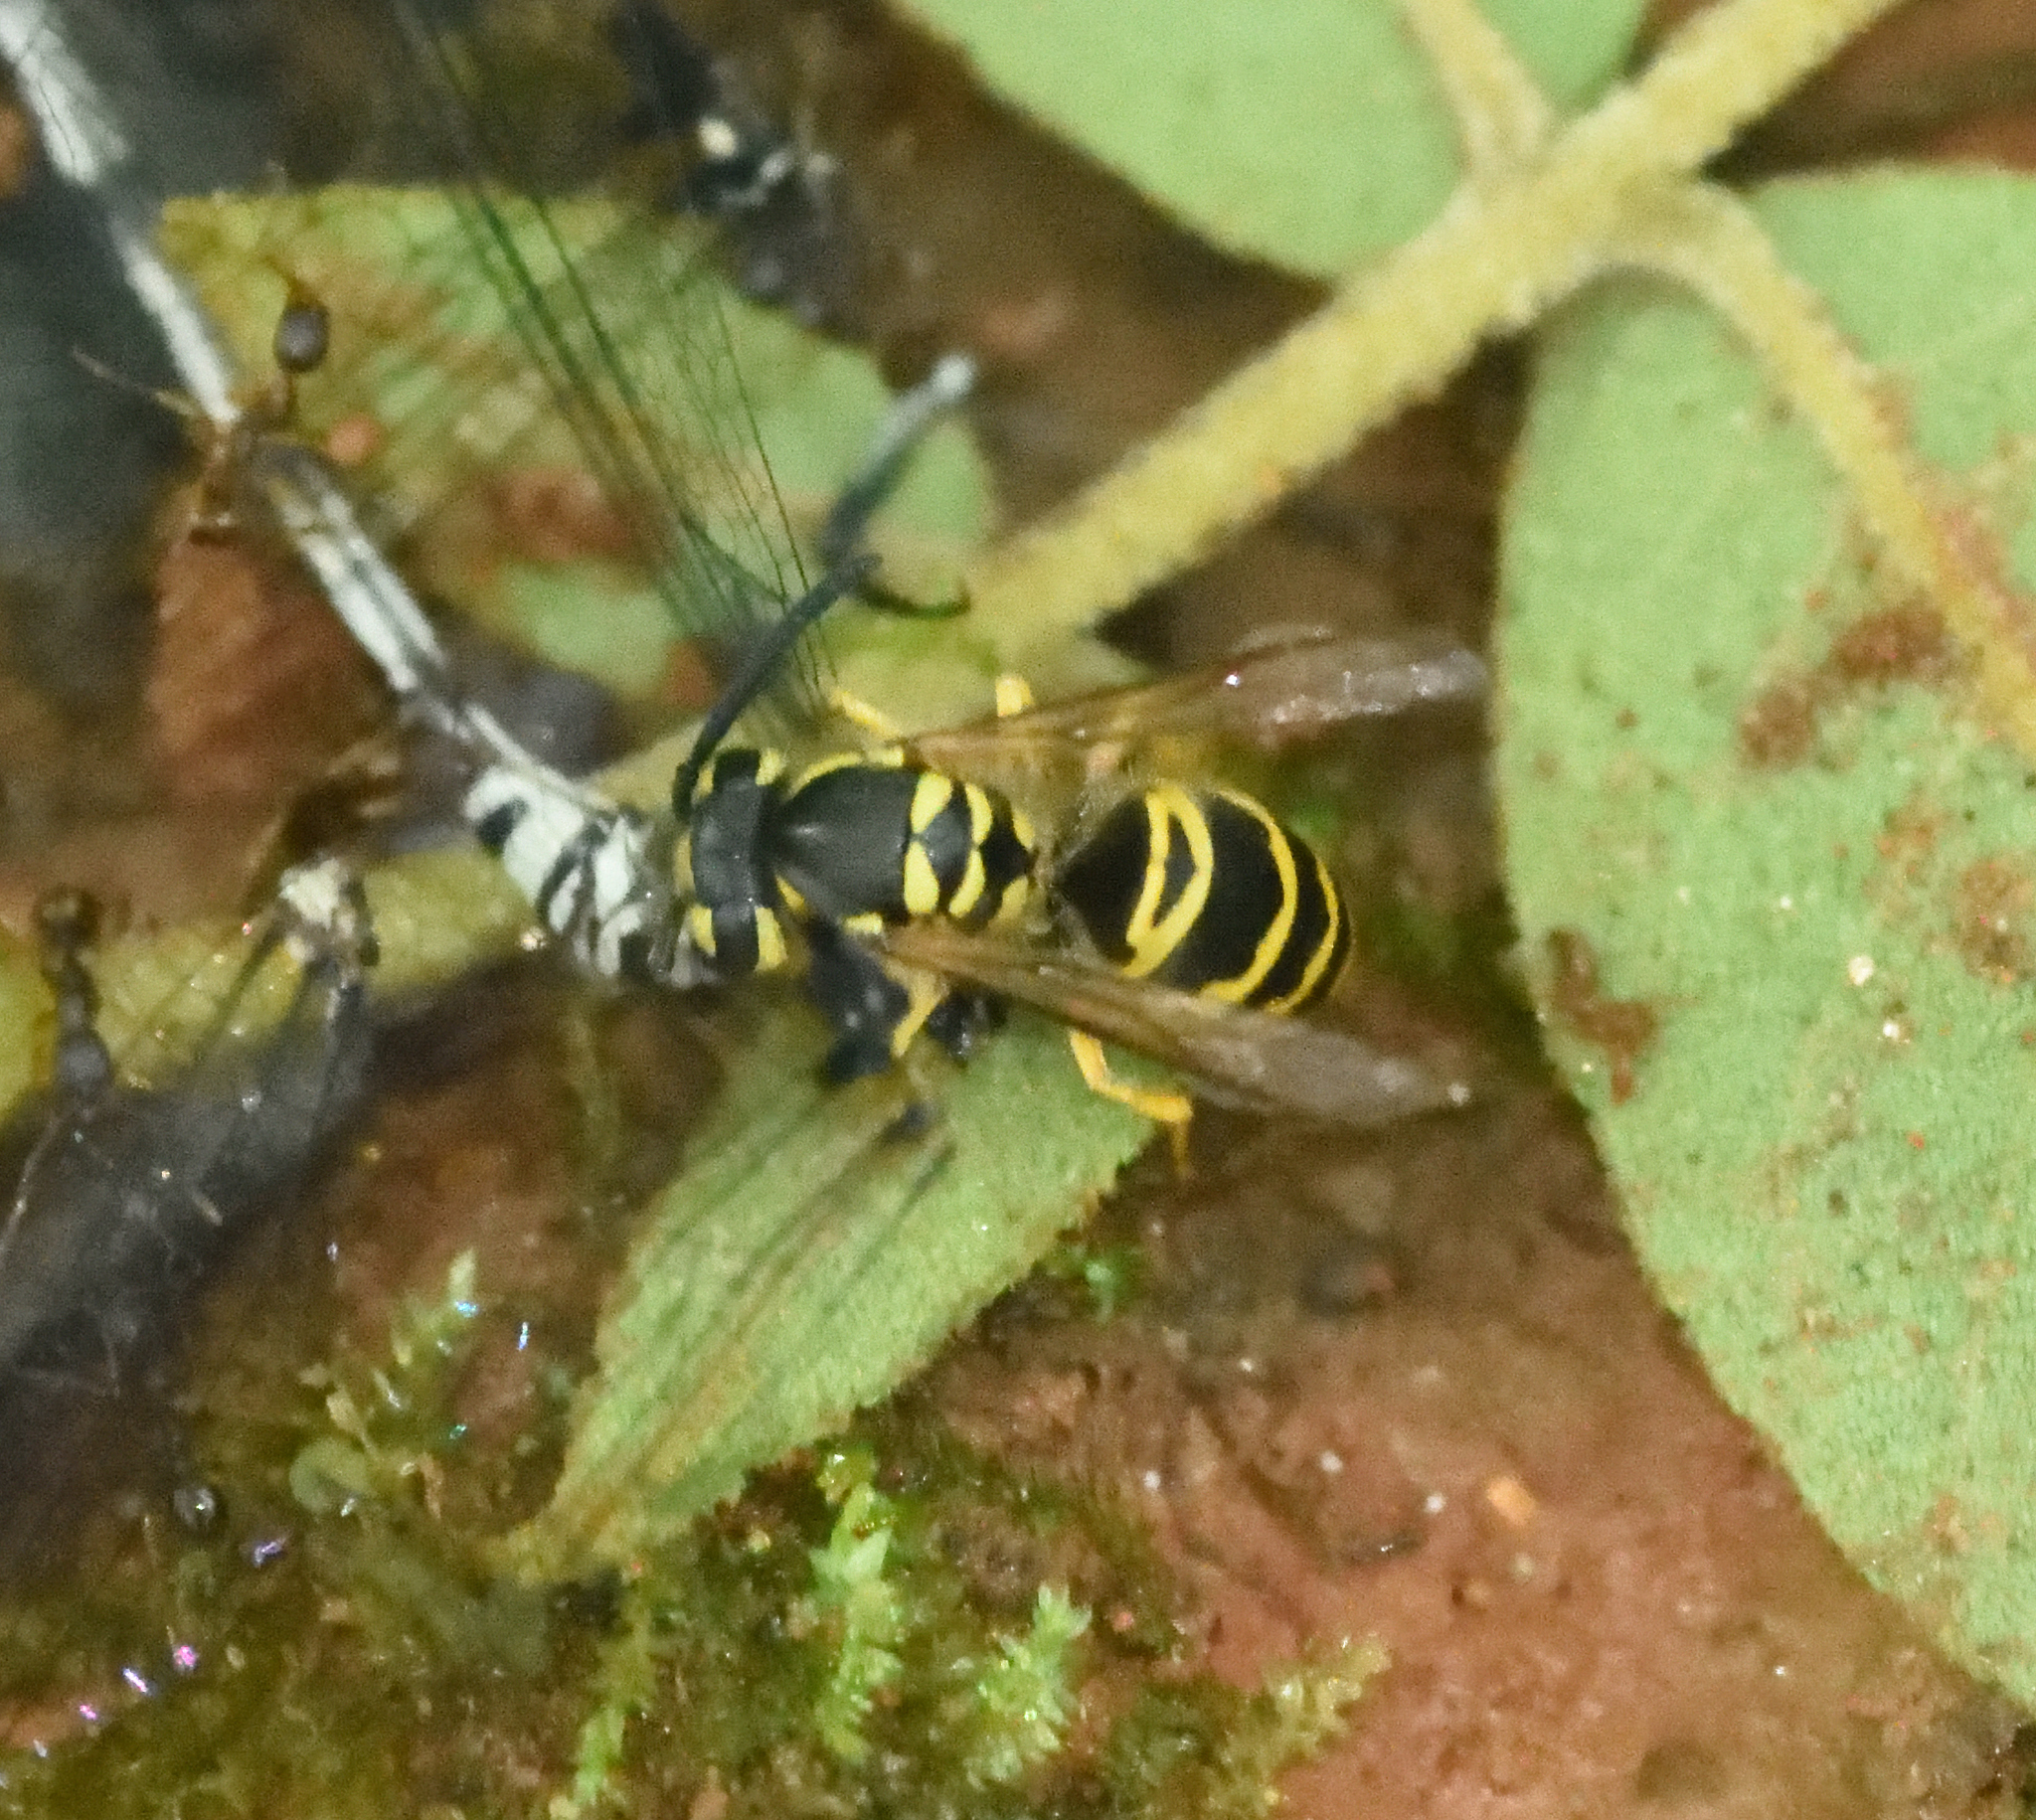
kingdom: Animalia
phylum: Arthropoda
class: Insecta
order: Hymenoptera
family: Vespidae
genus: Vespula
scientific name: Vespula maculifrons
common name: Eastern yellowjacket
